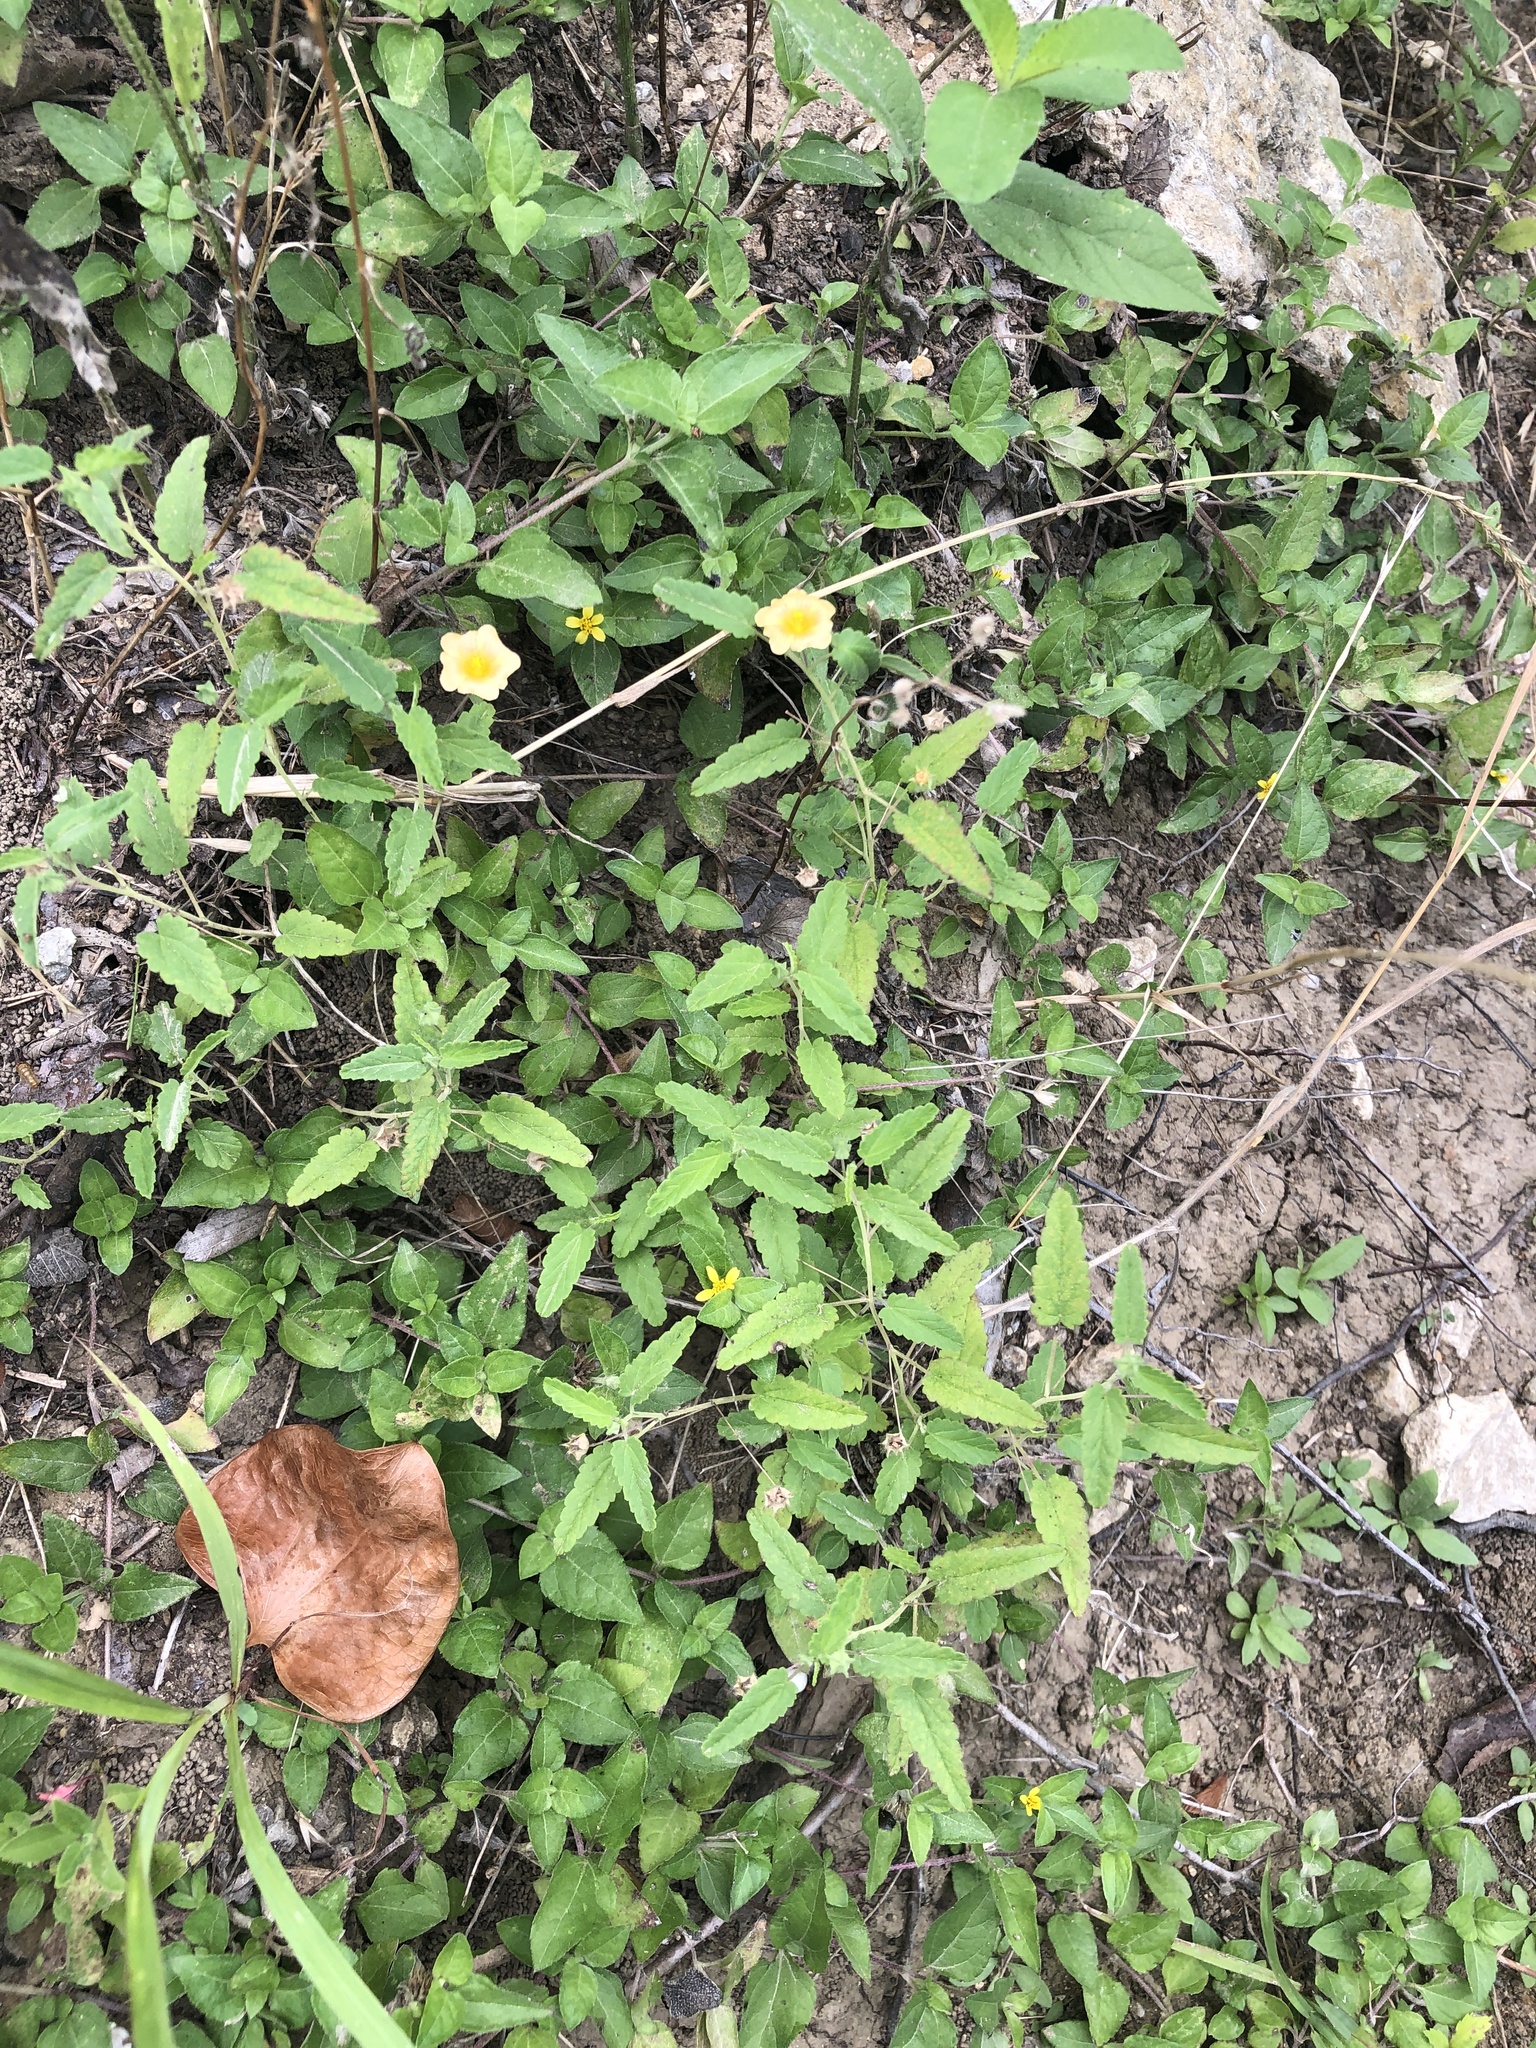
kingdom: Plantae
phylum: Tracheophyta
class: Magnoliopsida
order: Malvales
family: Malvaceae
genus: Sida
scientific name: Sida abutilifolia
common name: Spreading fanpetals
